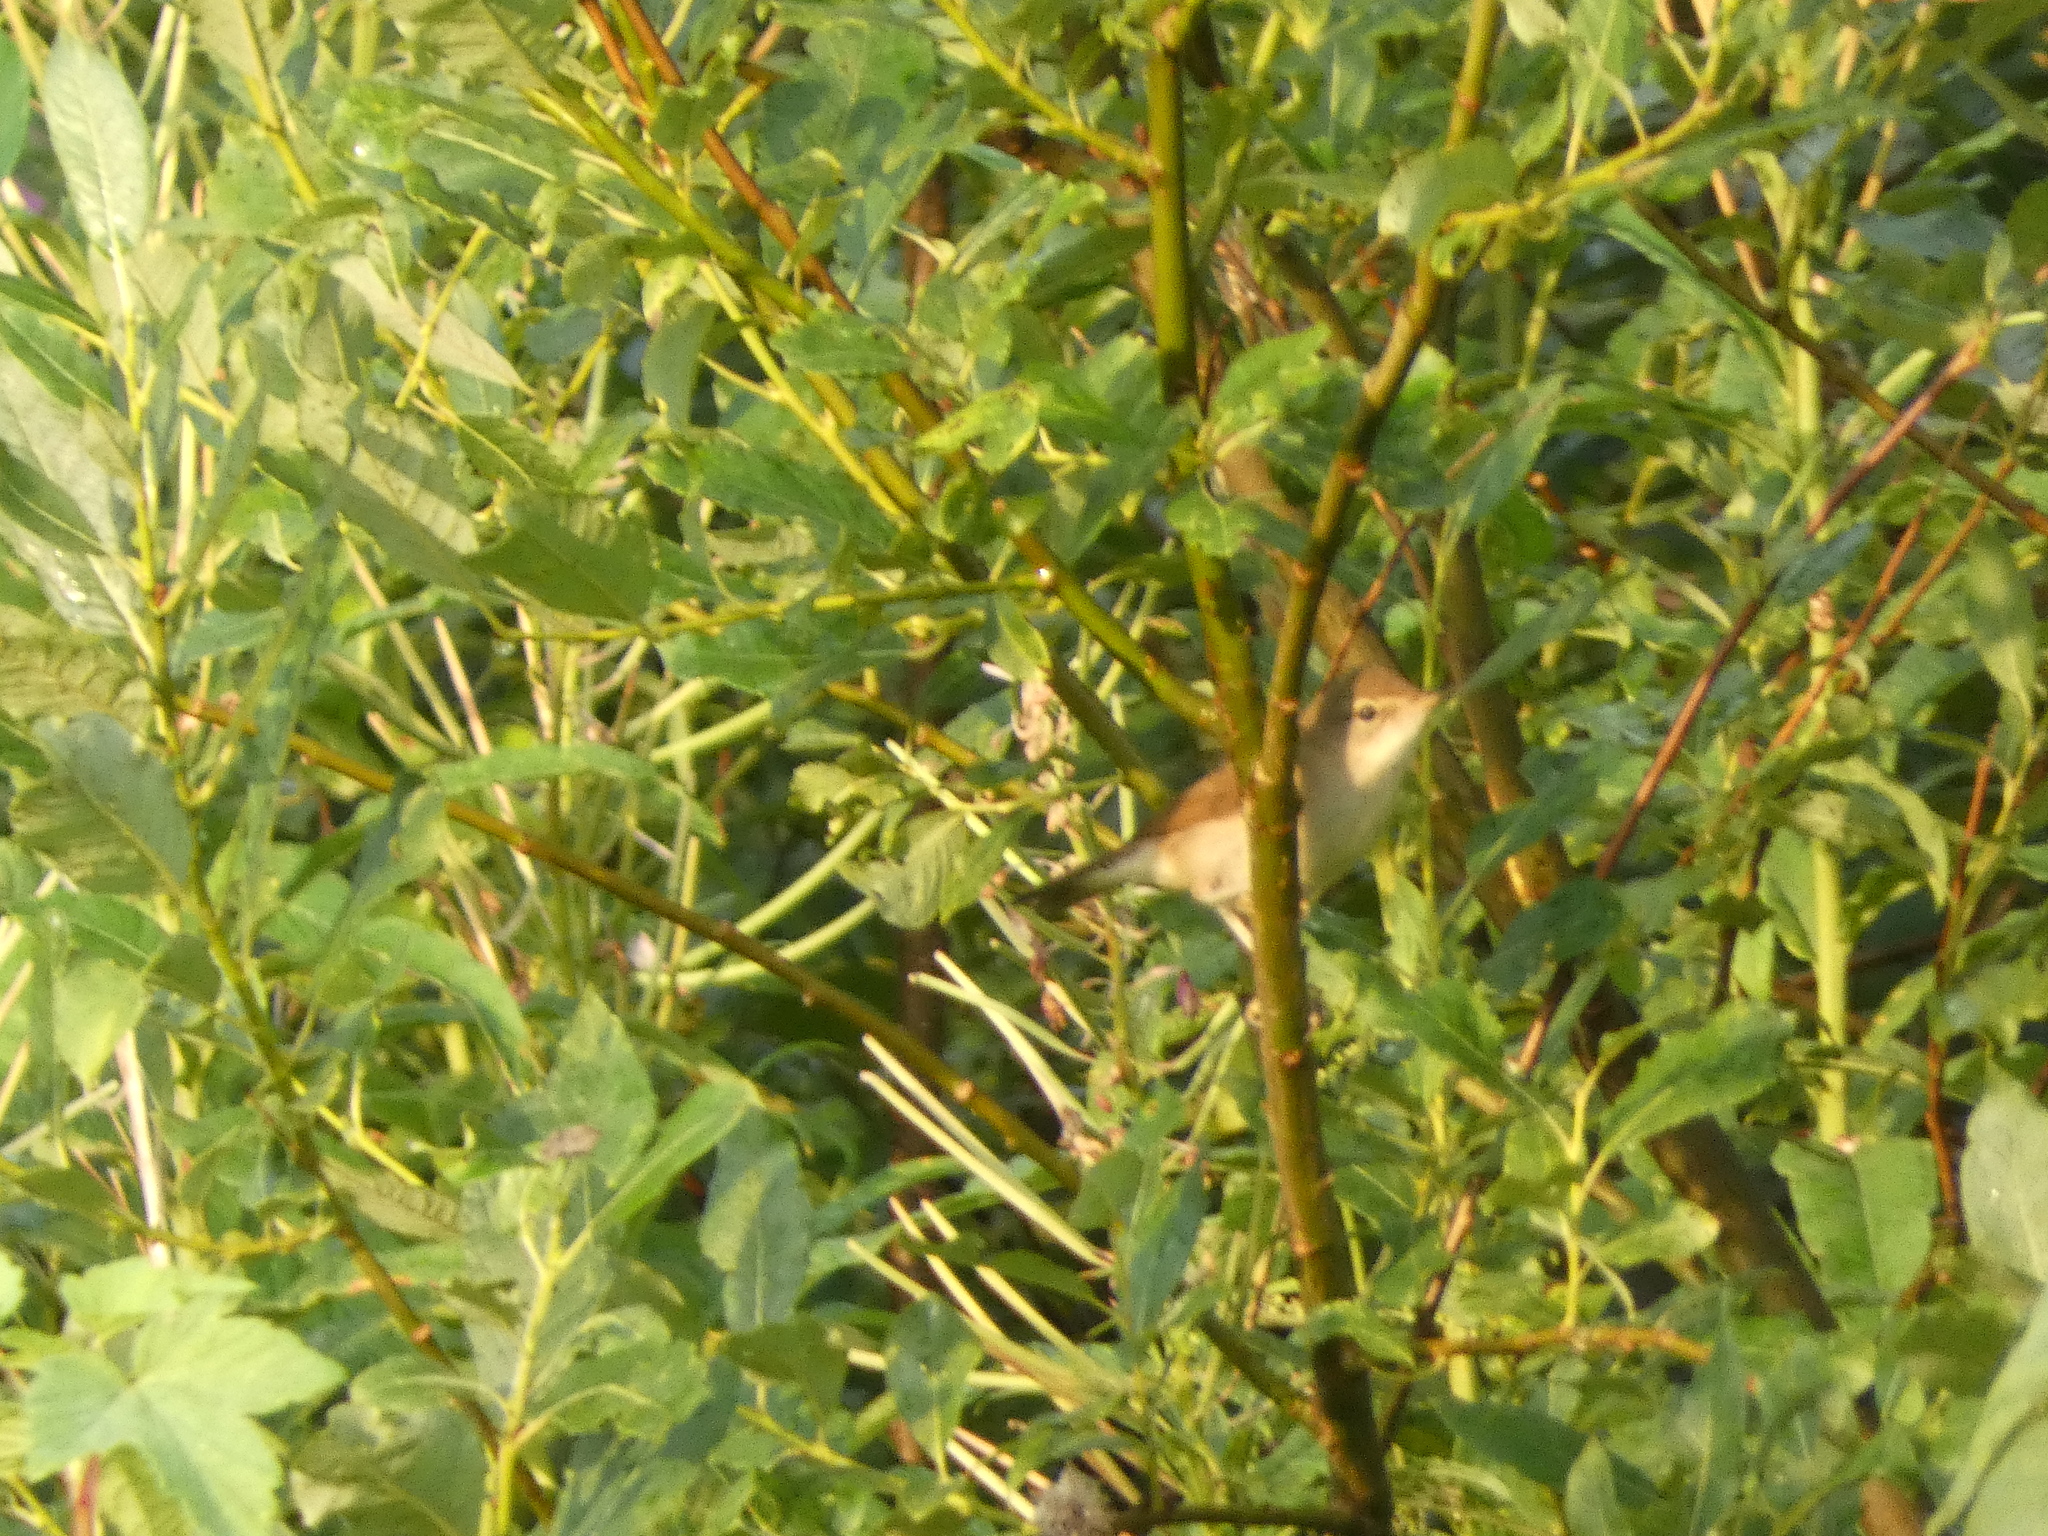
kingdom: Animalia
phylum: Chordata
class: Aves
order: Passeriformes
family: Acrocephalidae
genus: Acrocephalus
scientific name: Acrocephalus dumetorum
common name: Blyth's reed warbler
